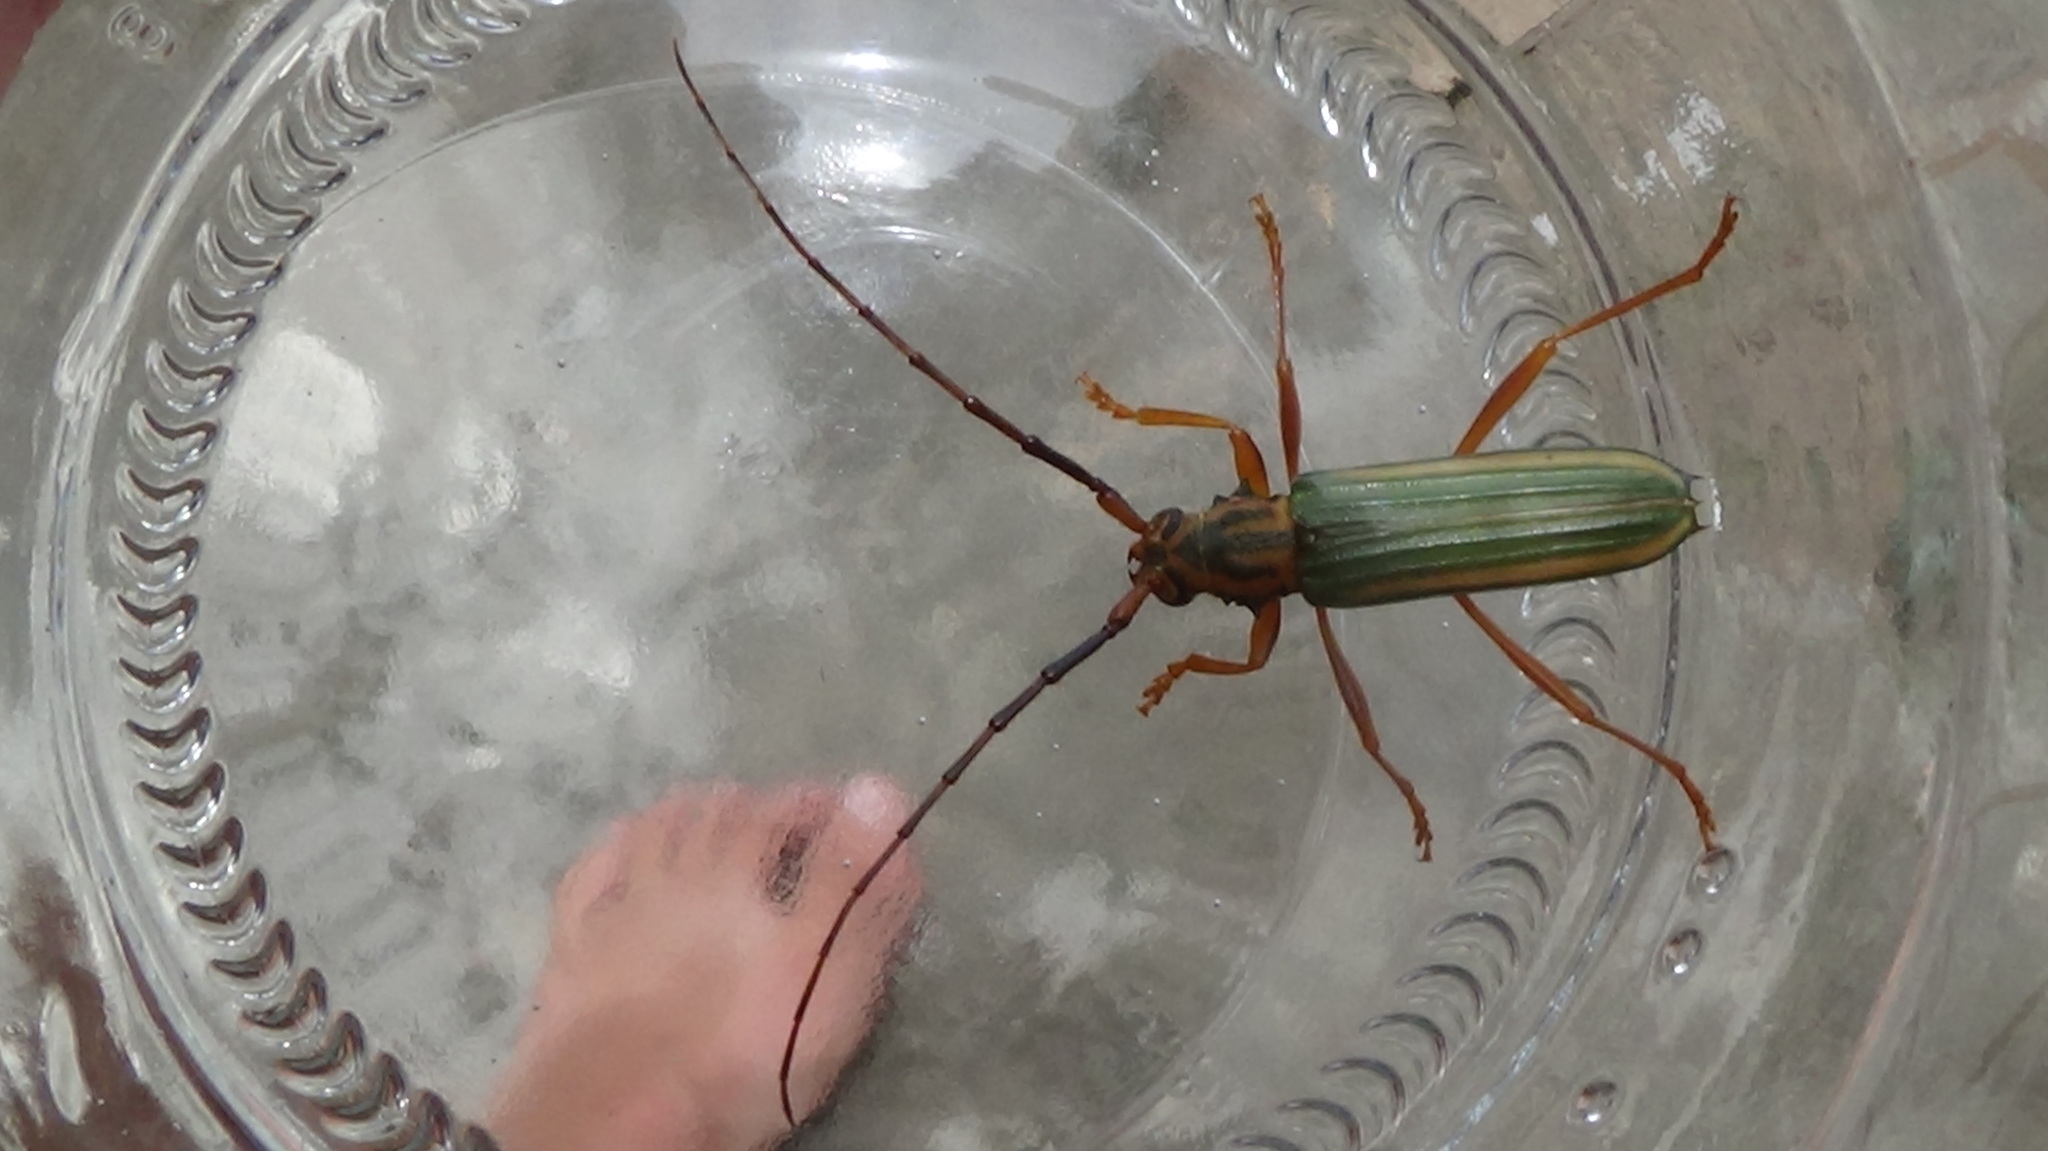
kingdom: Animalia
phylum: Arthropoda
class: Insecta
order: Coleoptera
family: Cerambycidae
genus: Chlorida
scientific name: Chlorida festiva
